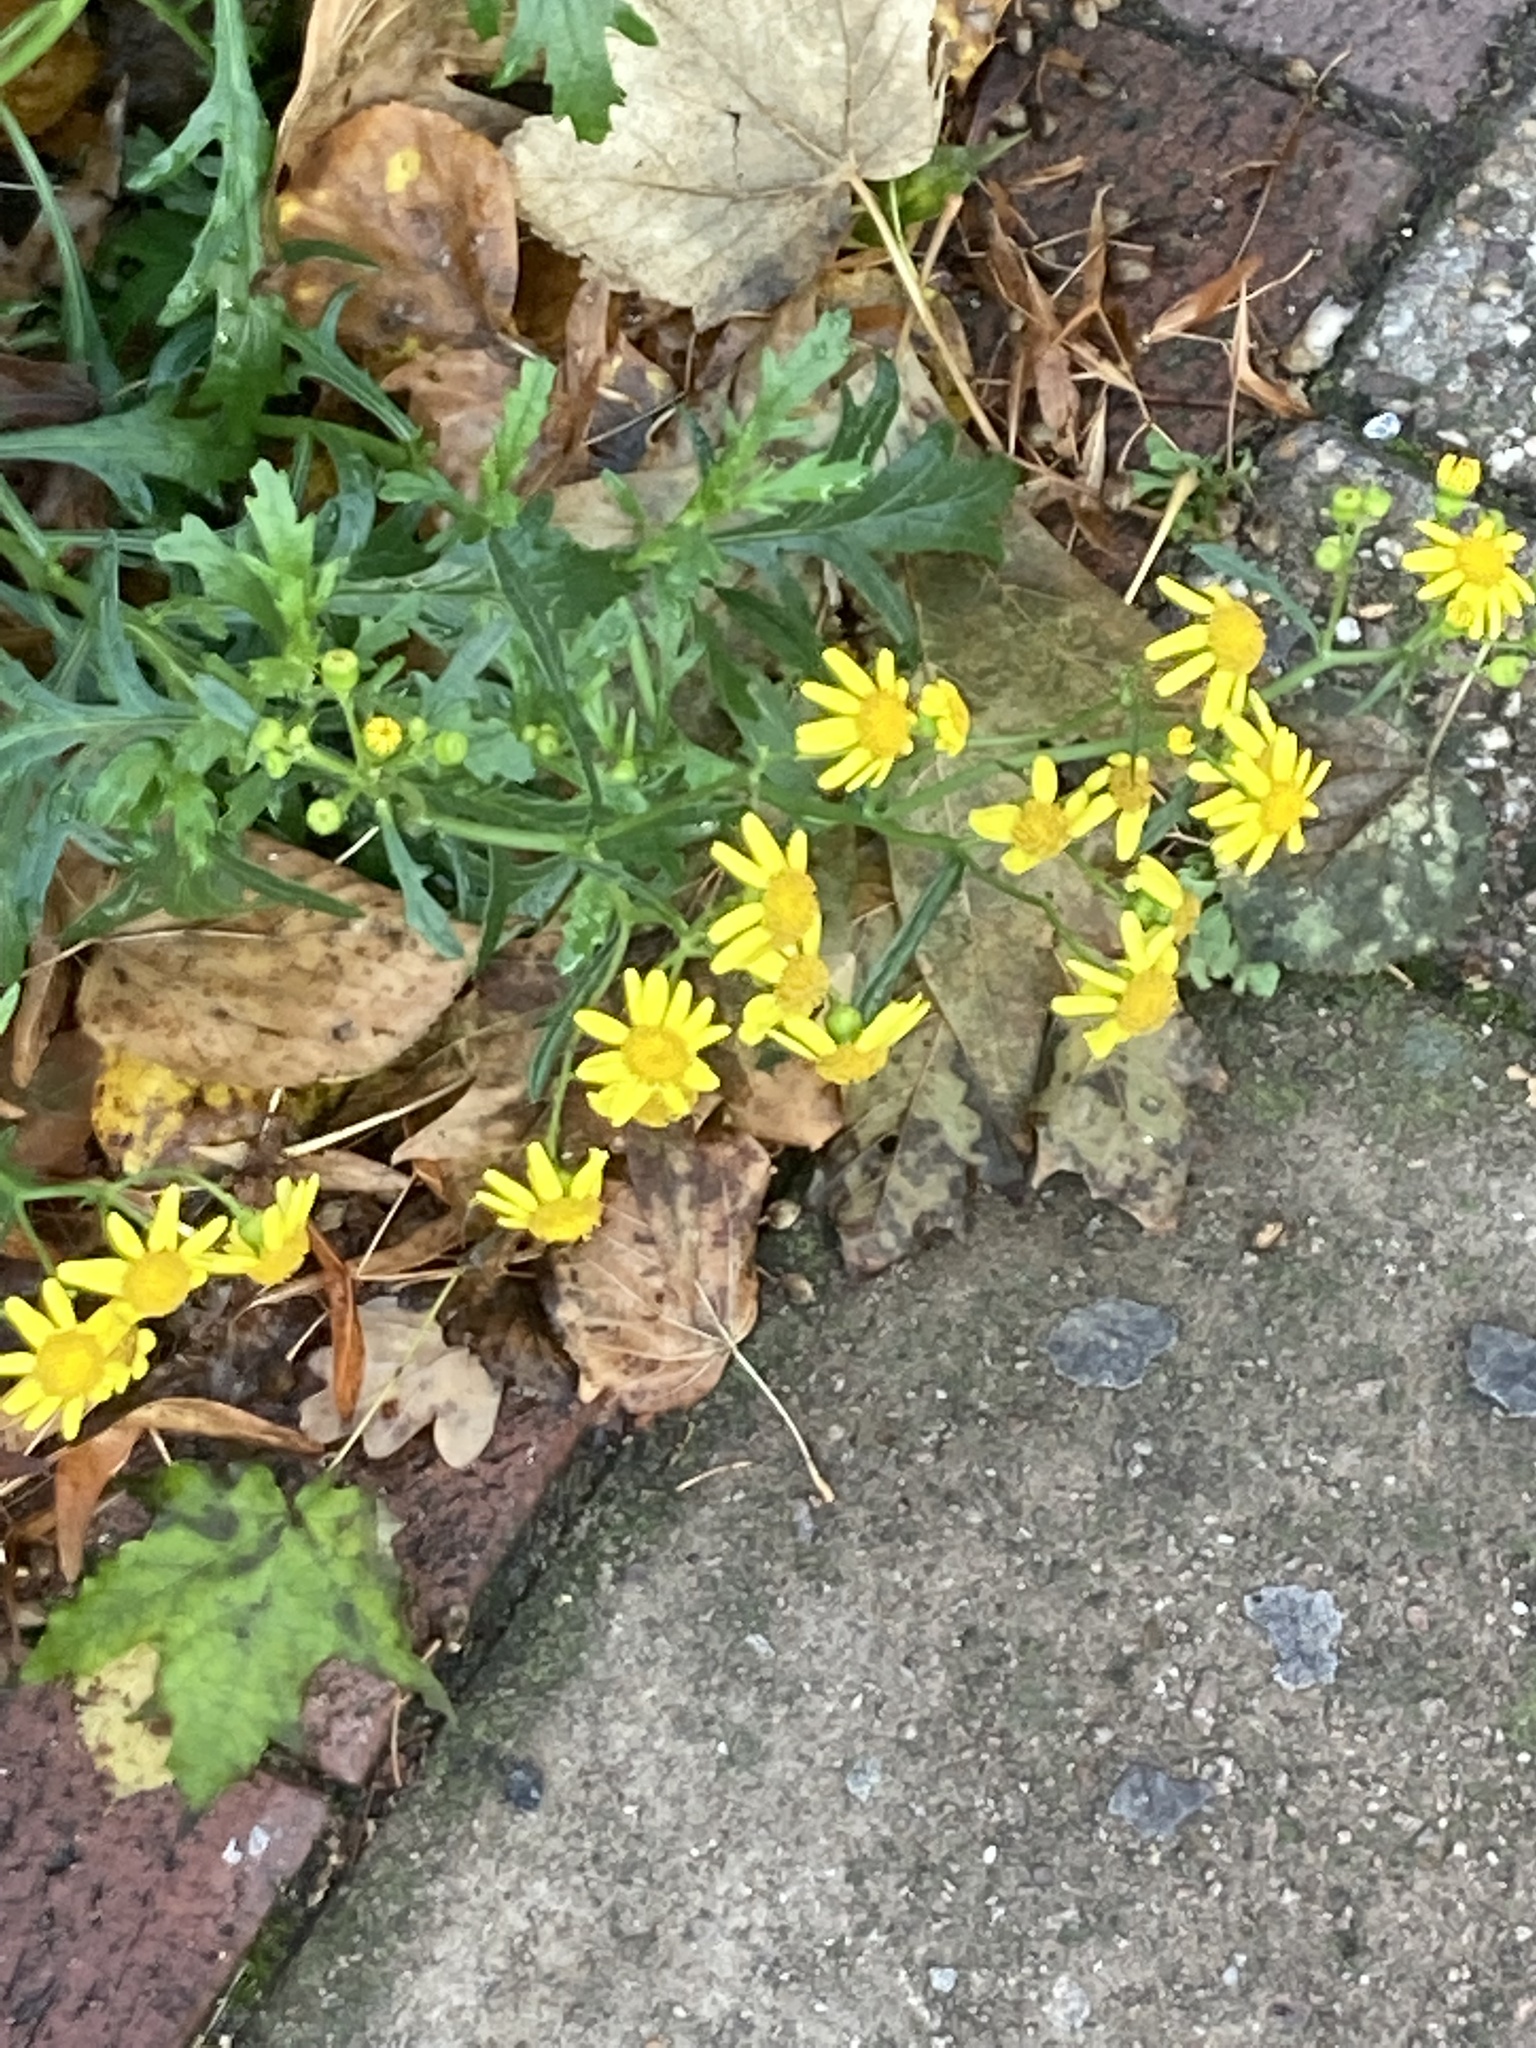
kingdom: Plantae
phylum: Tracheophyta
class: Magnoliopsida
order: Asterales
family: Asteraceae
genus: Senecio
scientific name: Senecio squalidus
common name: Oxford ragwort
